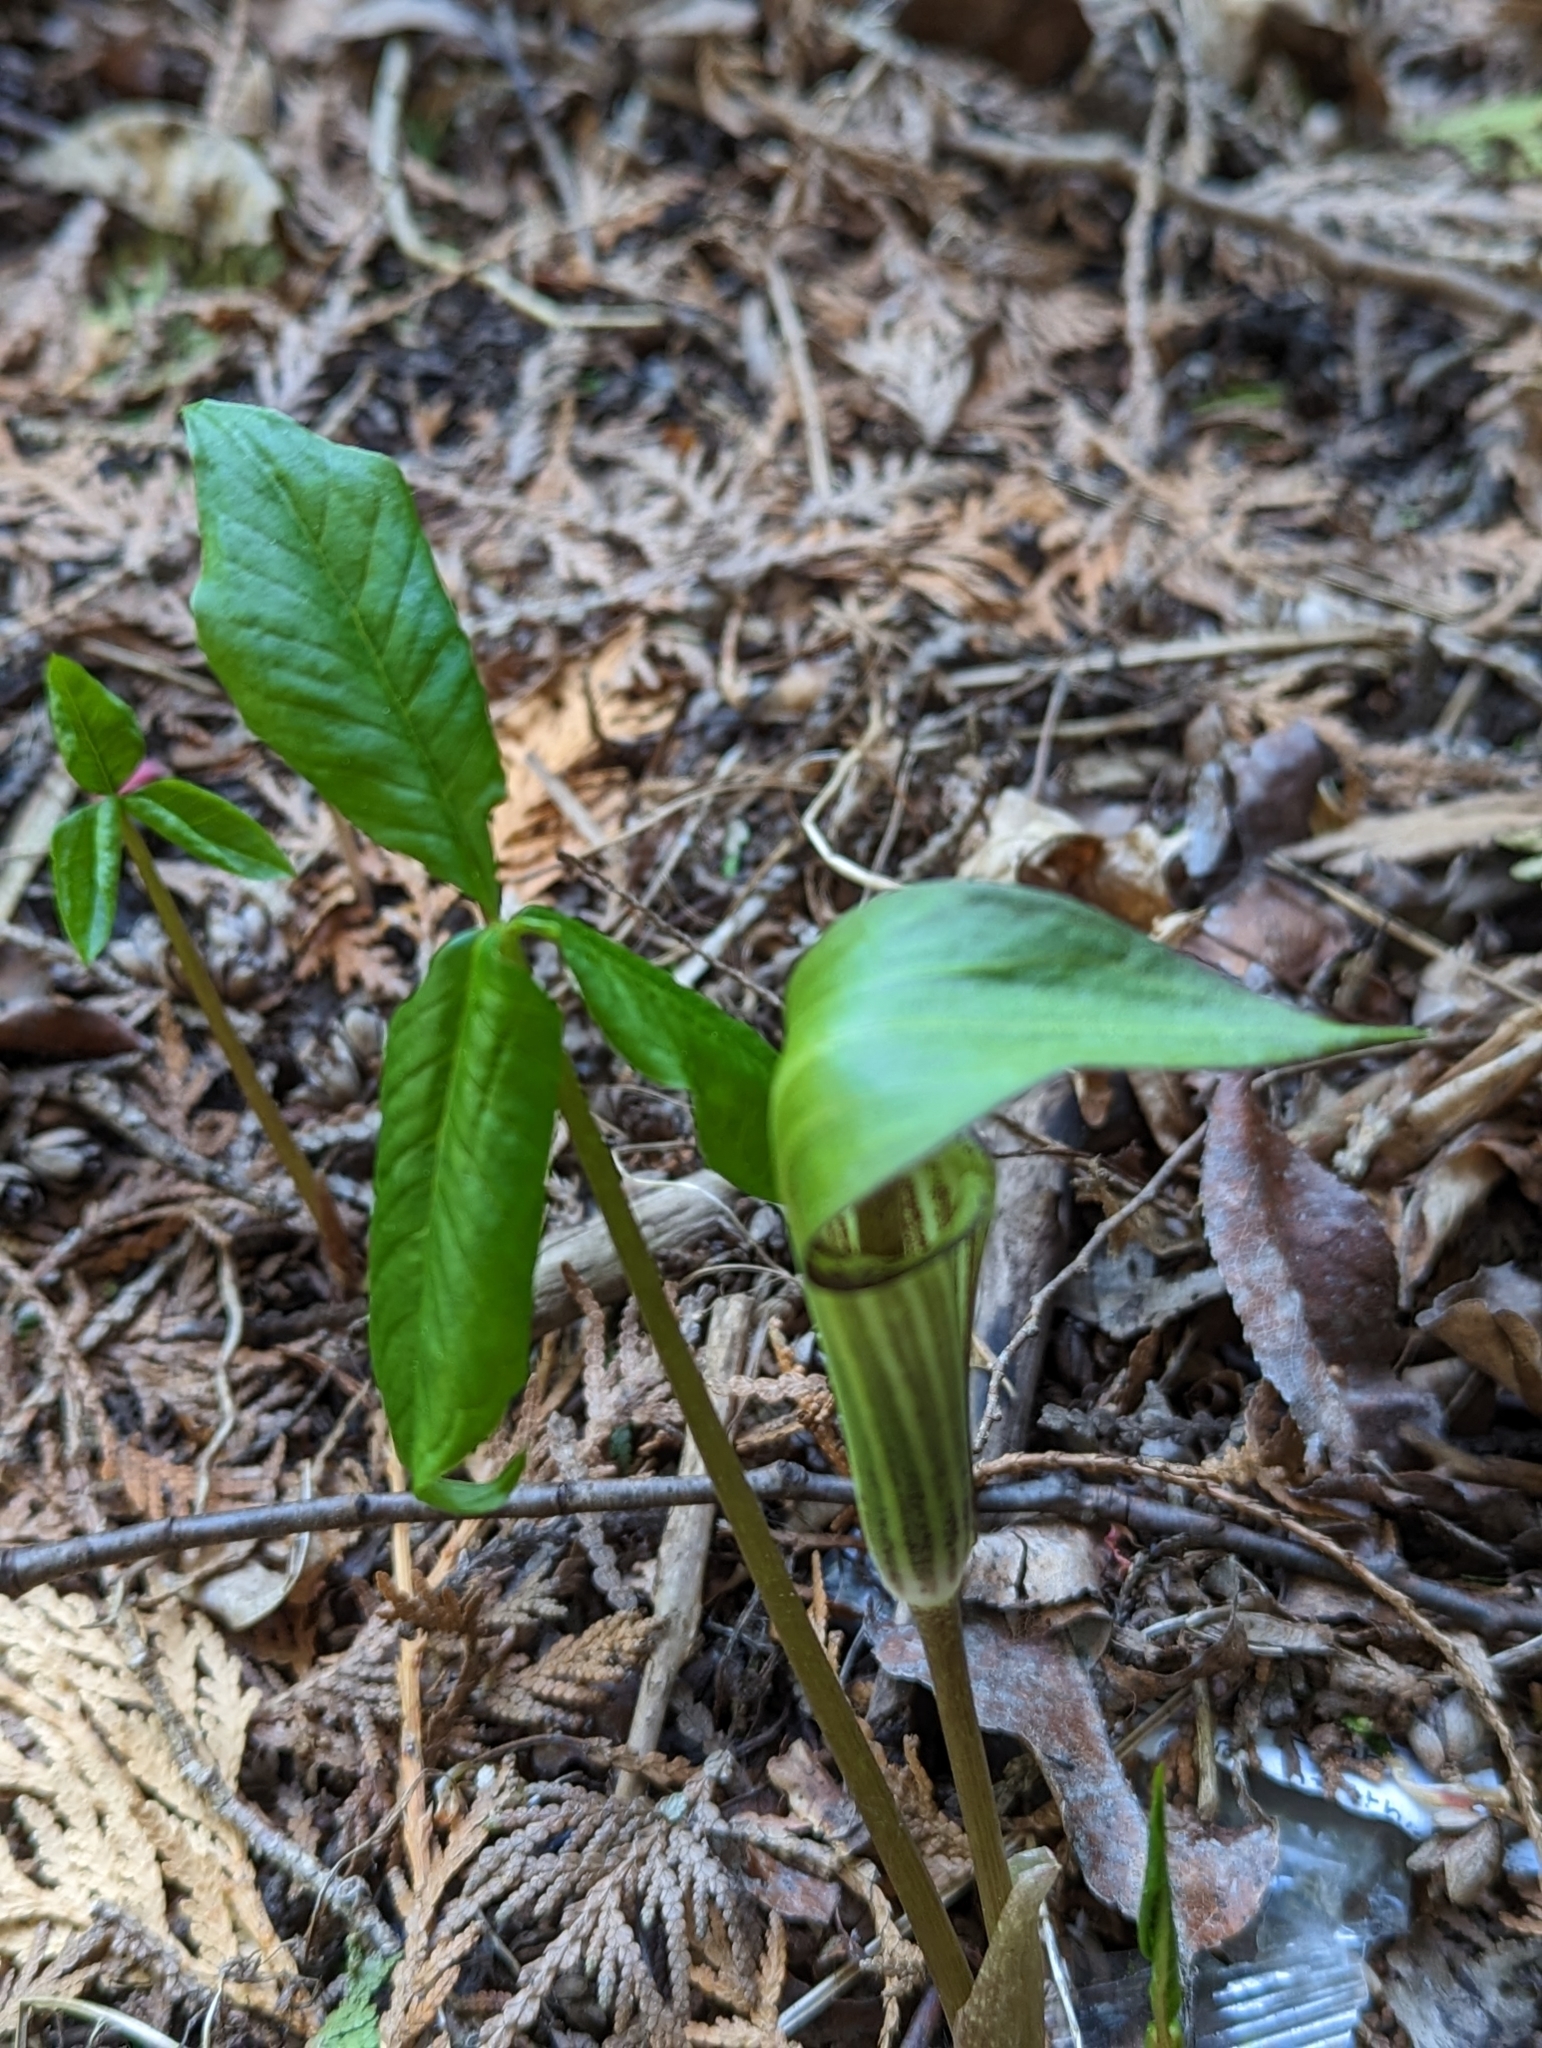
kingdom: Plantae
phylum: Tracheophyta
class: Liliopsida
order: Alismatales
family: Araceae
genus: Arisaema
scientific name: Arisaema triphyllum
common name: Jack-in-the-pulpit
